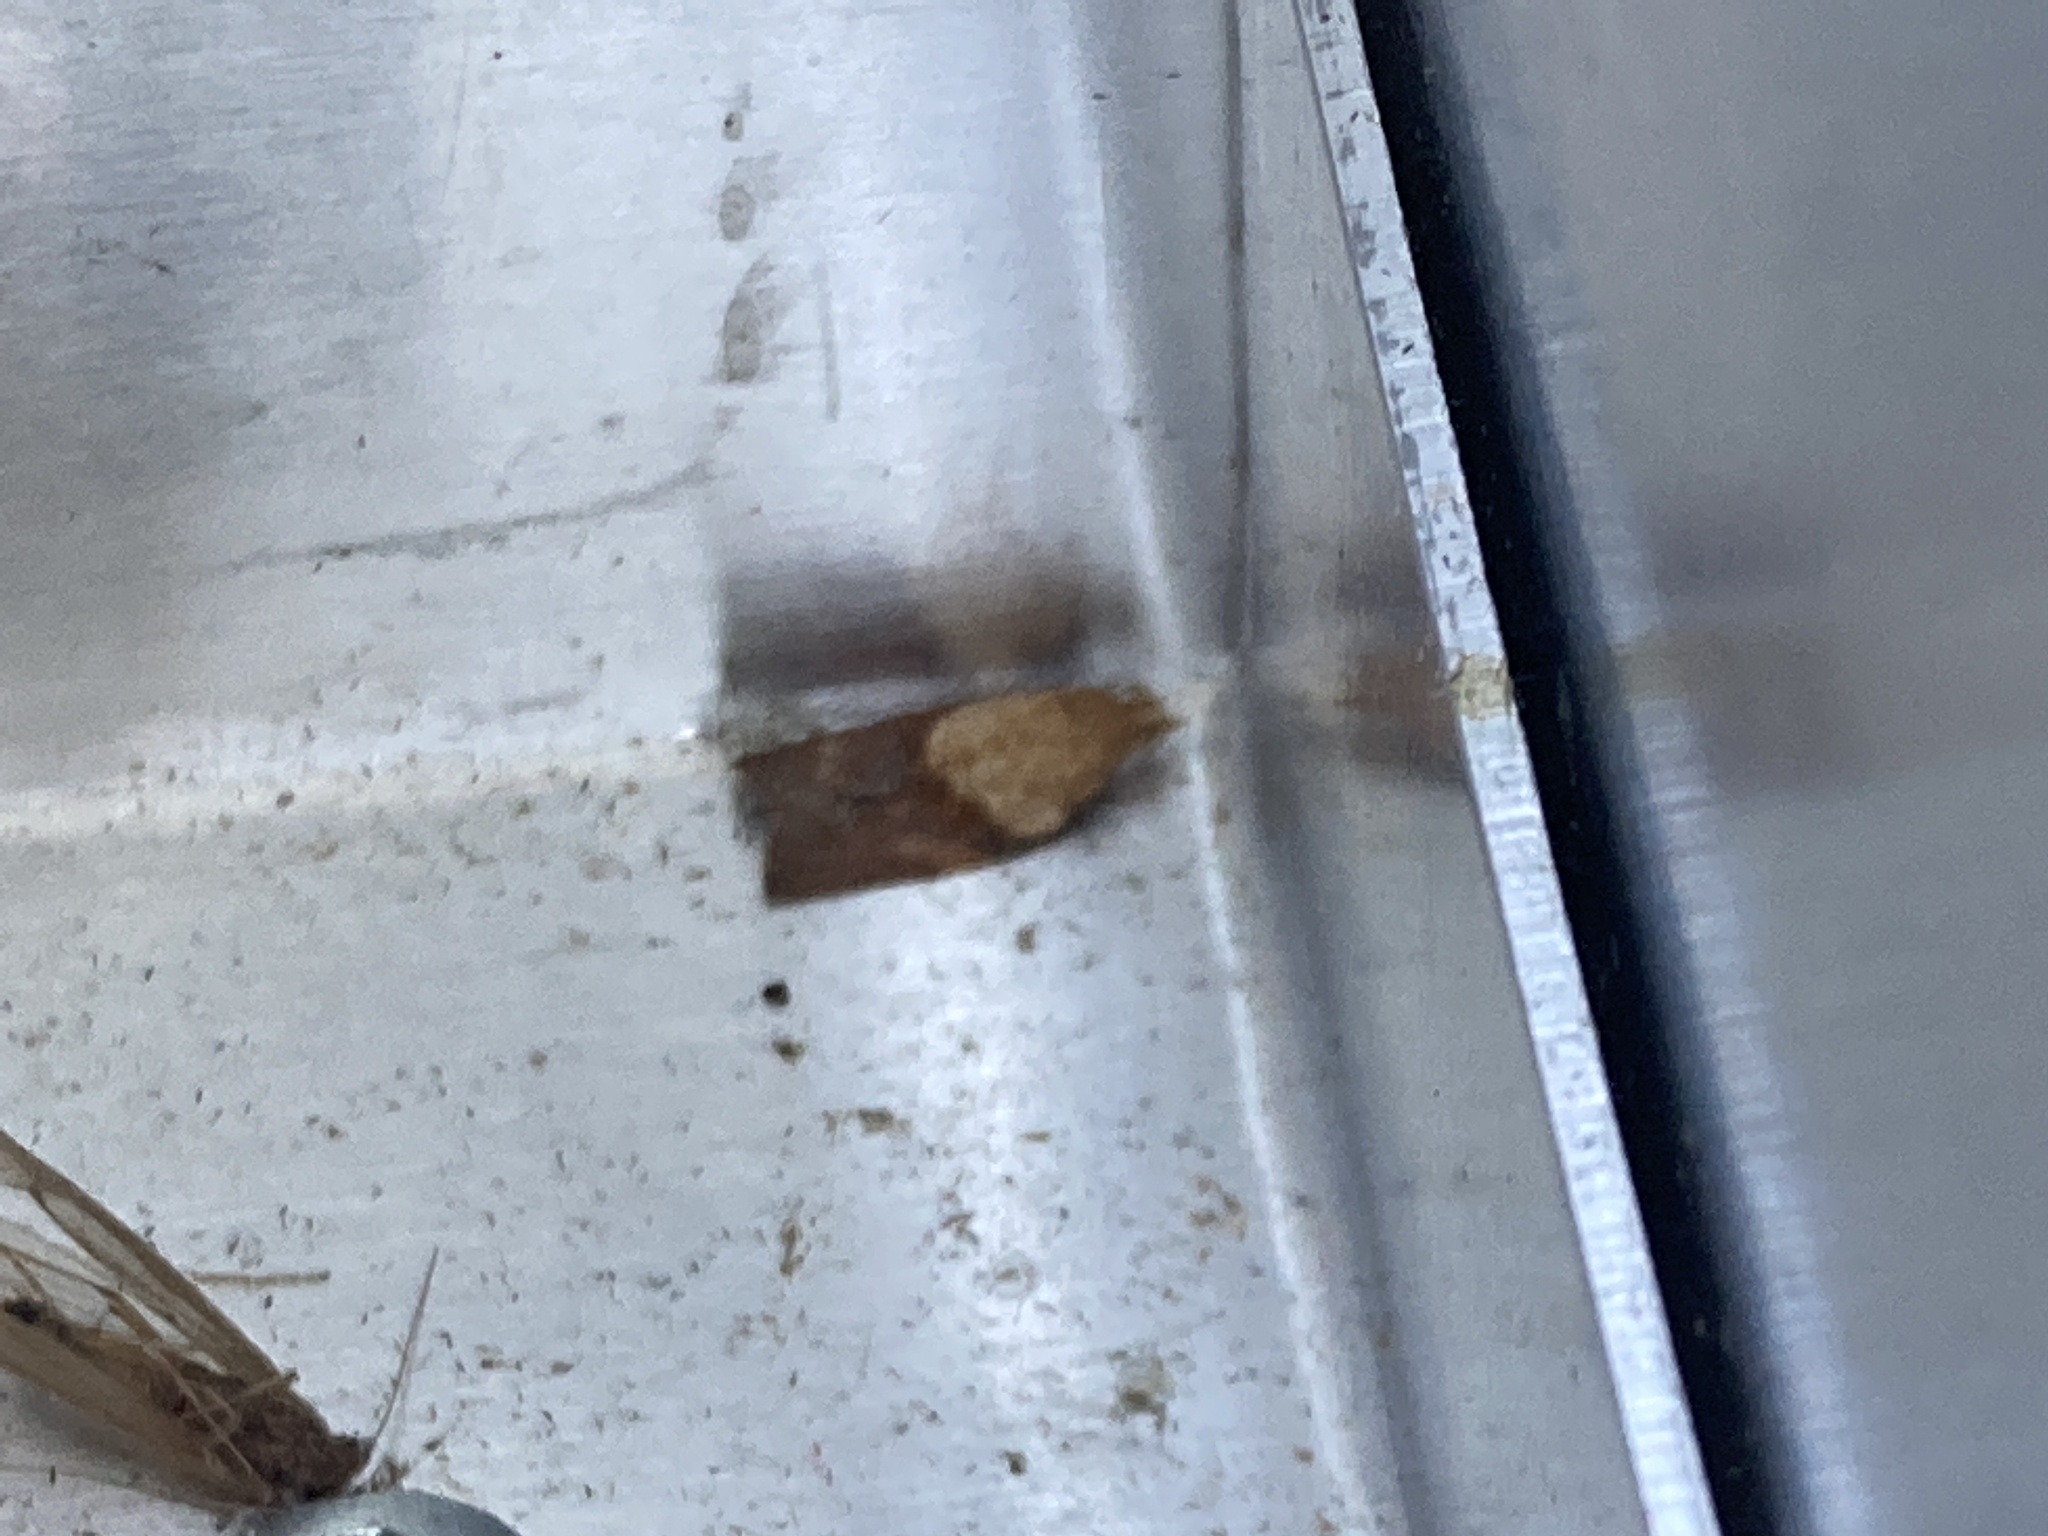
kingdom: Animalia
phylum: Arthropoda
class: Insecta
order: Lepidoptera
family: Tortricidae
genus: Epiphyas
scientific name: Epiphyas postvittana
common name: Light brown apple moth
